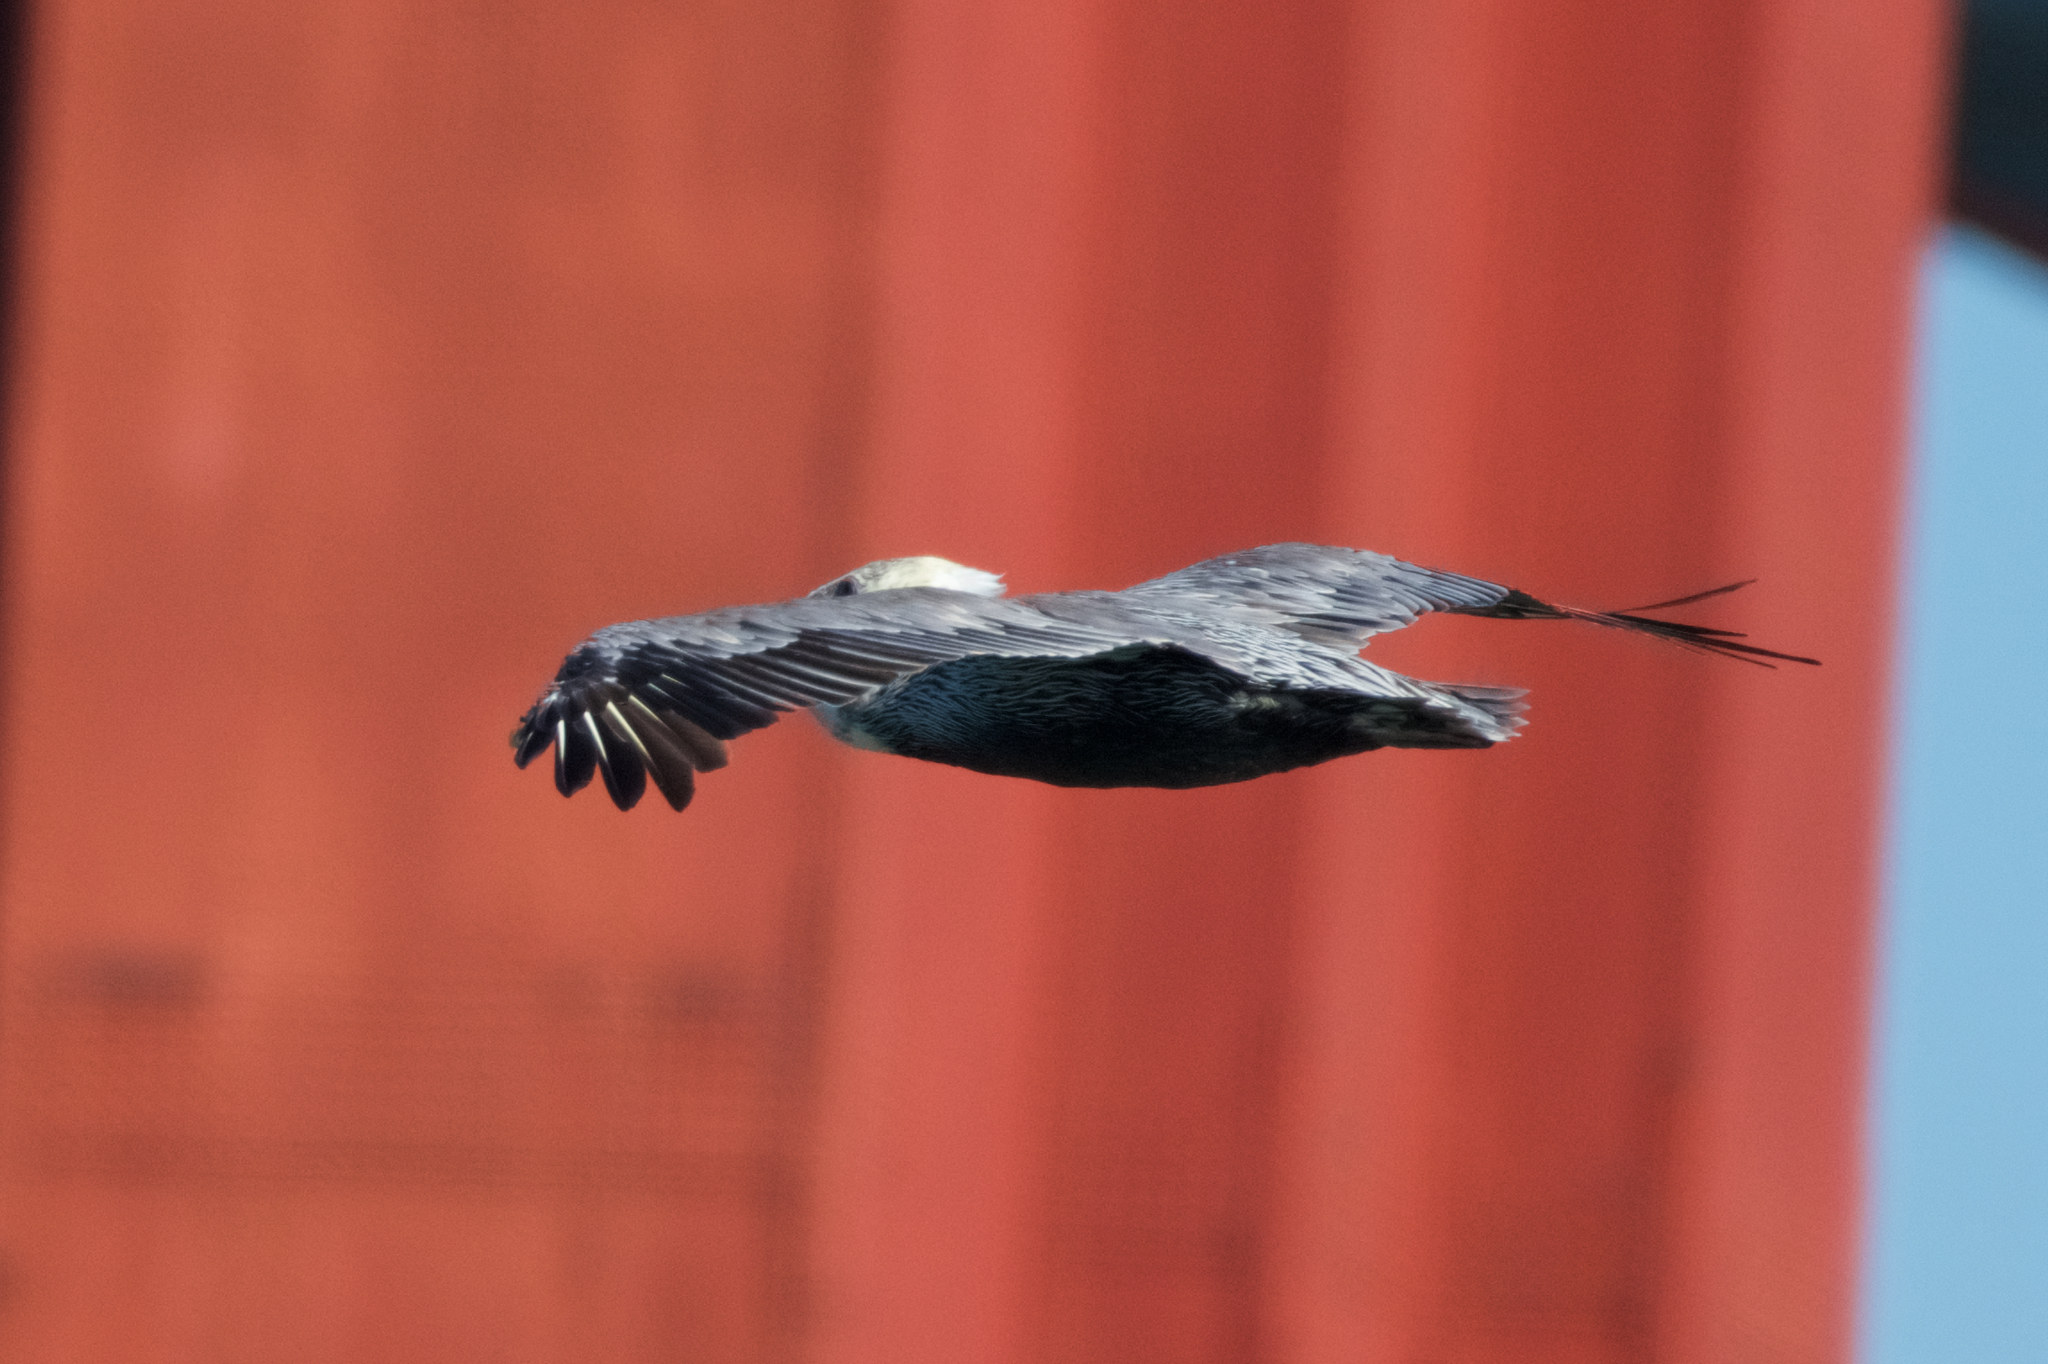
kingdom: Animalia
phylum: Chordata
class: Aves
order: Pelecaniformes
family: Pelecanidae
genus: Pelecanus
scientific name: Pelecanus occidentalis
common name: Brown pelican
